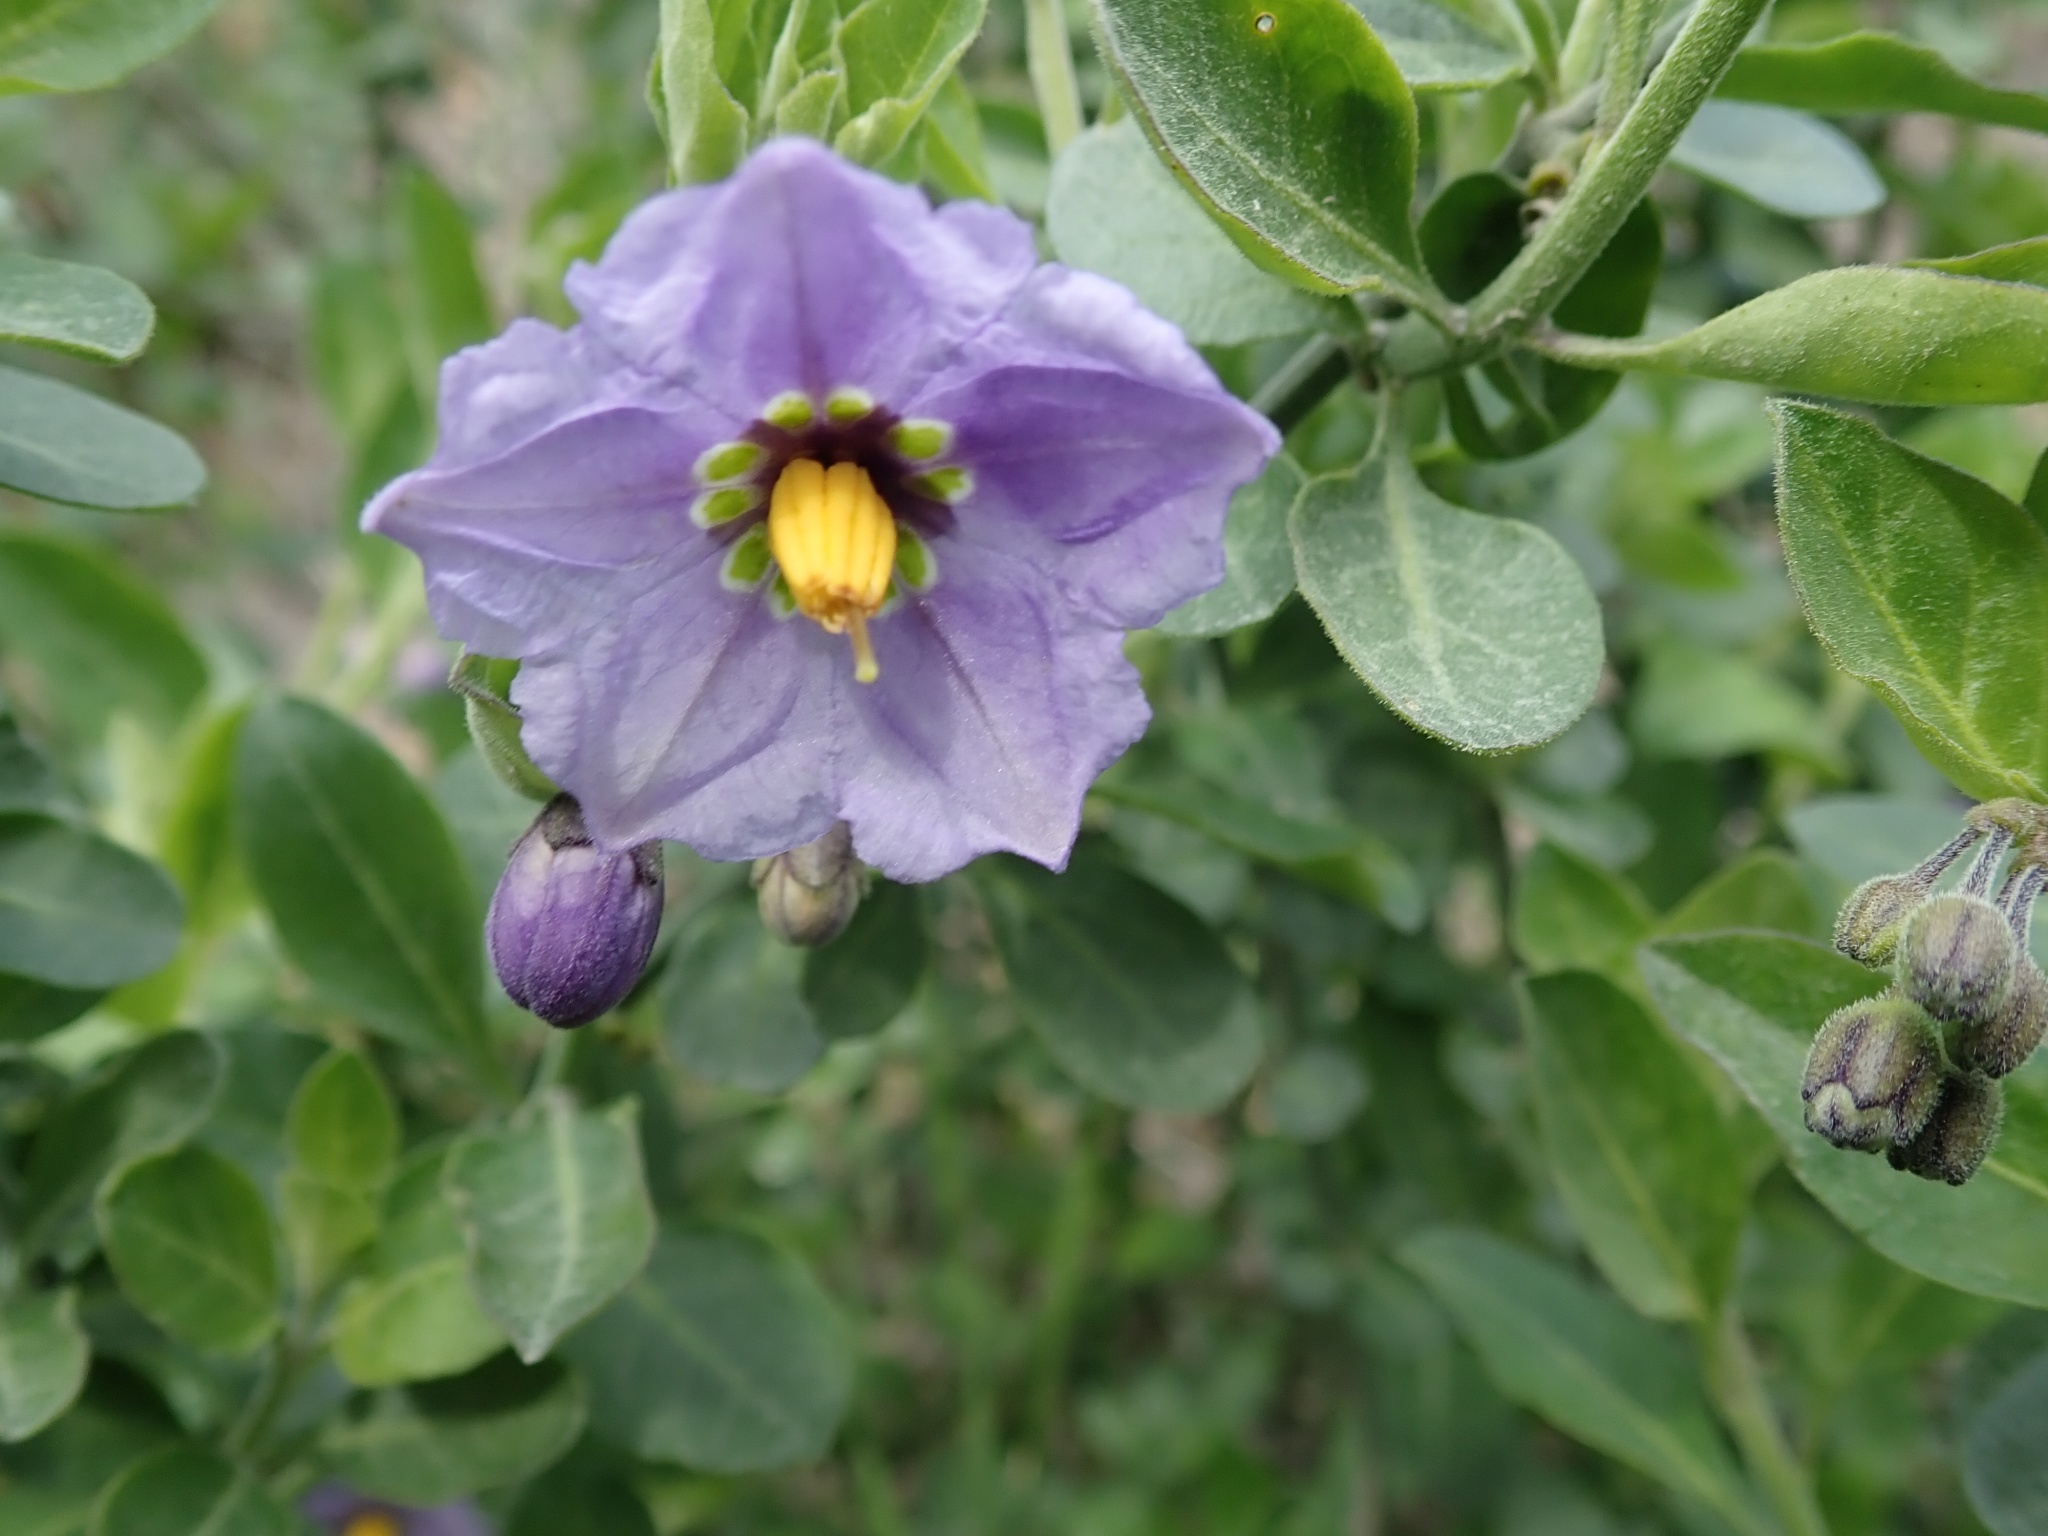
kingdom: Plantae
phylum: Tracheophyta
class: Magnoliopsida
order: Solanales
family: Solanaceae
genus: Solanum
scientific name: Solanum umbelliferum
